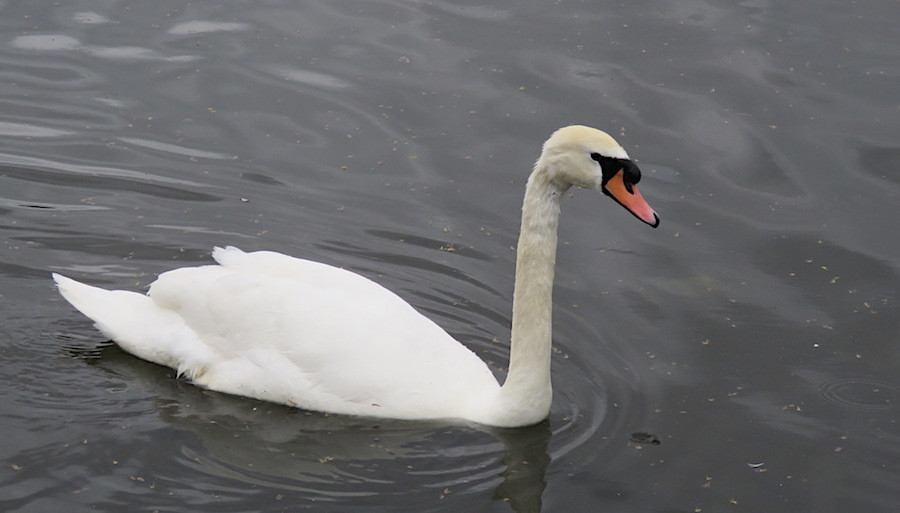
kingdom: Animalia
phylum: Chordata
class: Aves
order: Anseriformes
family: Anatidae
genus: Cygnus
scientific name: Cygnus olor
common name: Mute swan
